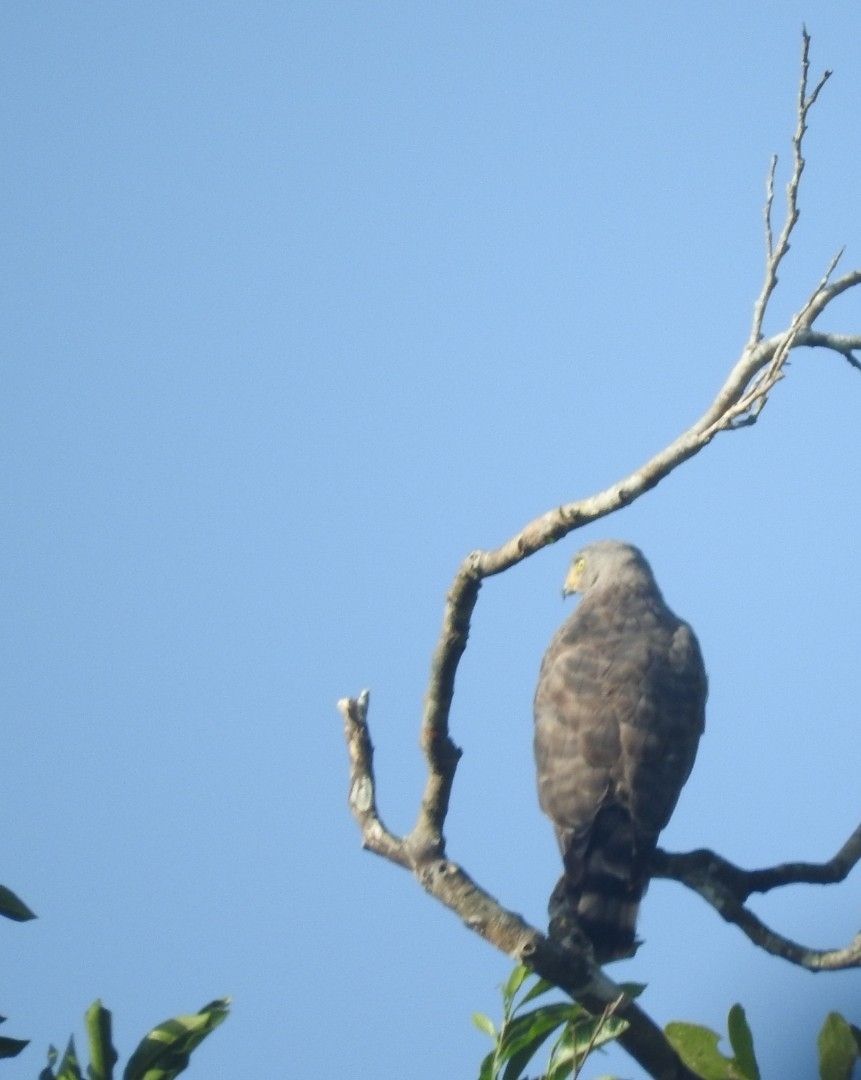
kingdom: Animalia
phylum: Chordata
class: Aves
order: Accipitriformes
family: Accipitridae
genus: Rupornis
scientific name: Rupornis magnirostris
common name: Roadside hawk
